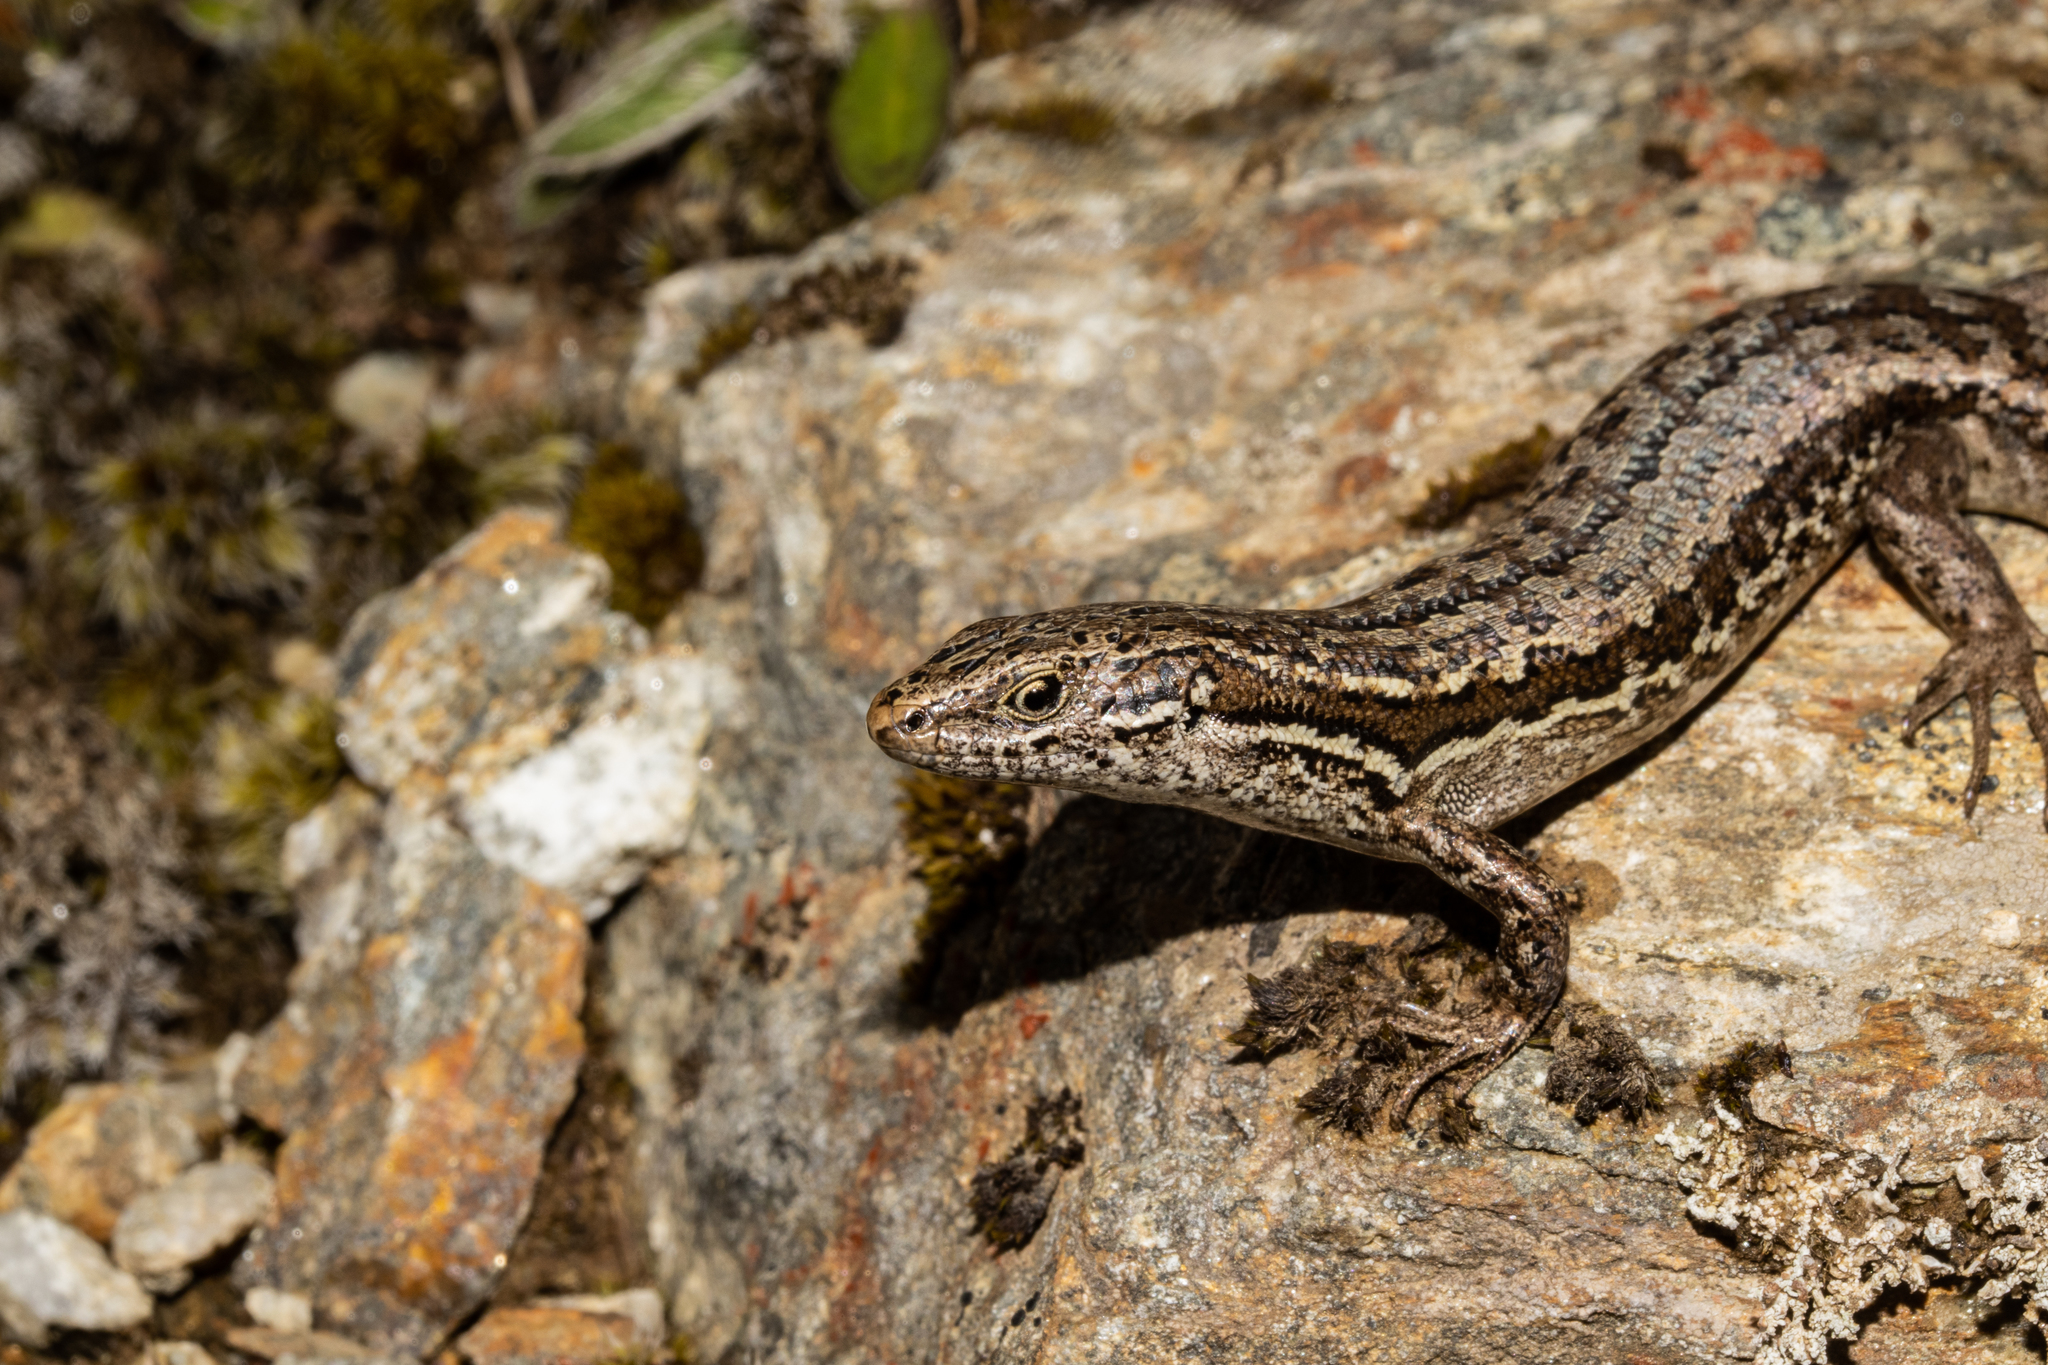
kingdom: Animalia
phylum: Chordata
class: Squamata
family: Scincidae
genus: Oligosoma
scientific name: Oligosoma maccanni
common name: Mccann’s skink
